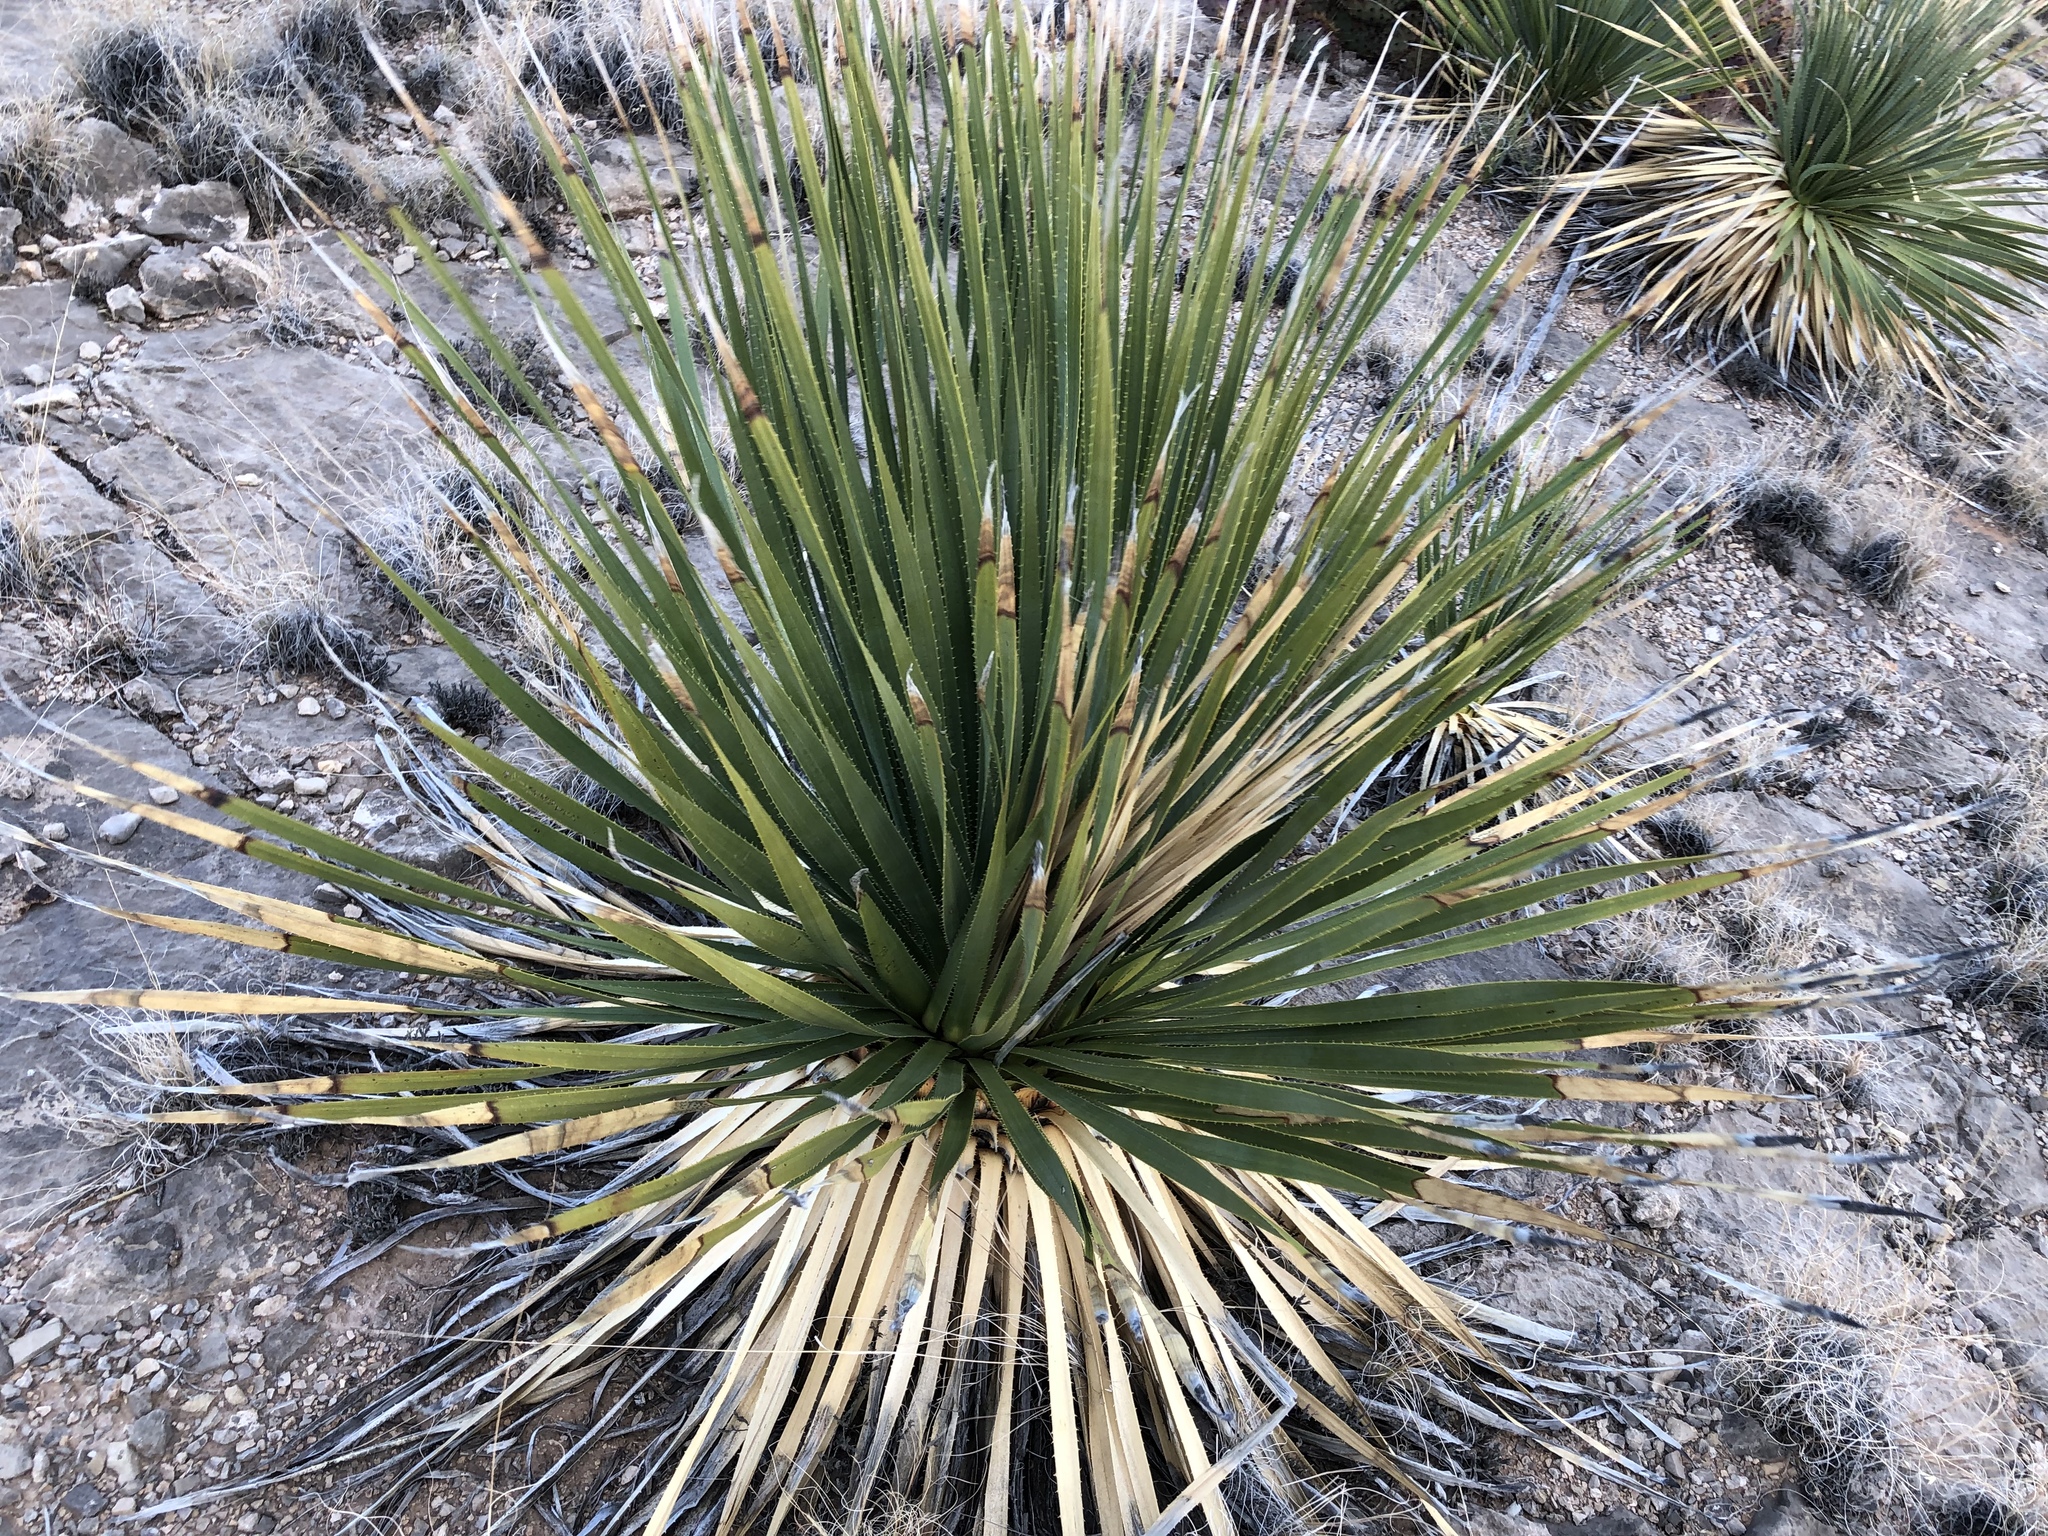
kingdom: Plantae
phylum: Tracheophyta
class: Liliopsida
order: Asparagales
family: Asparagaceae
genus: Dasylirion
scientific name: Dasylirion wheeleri
